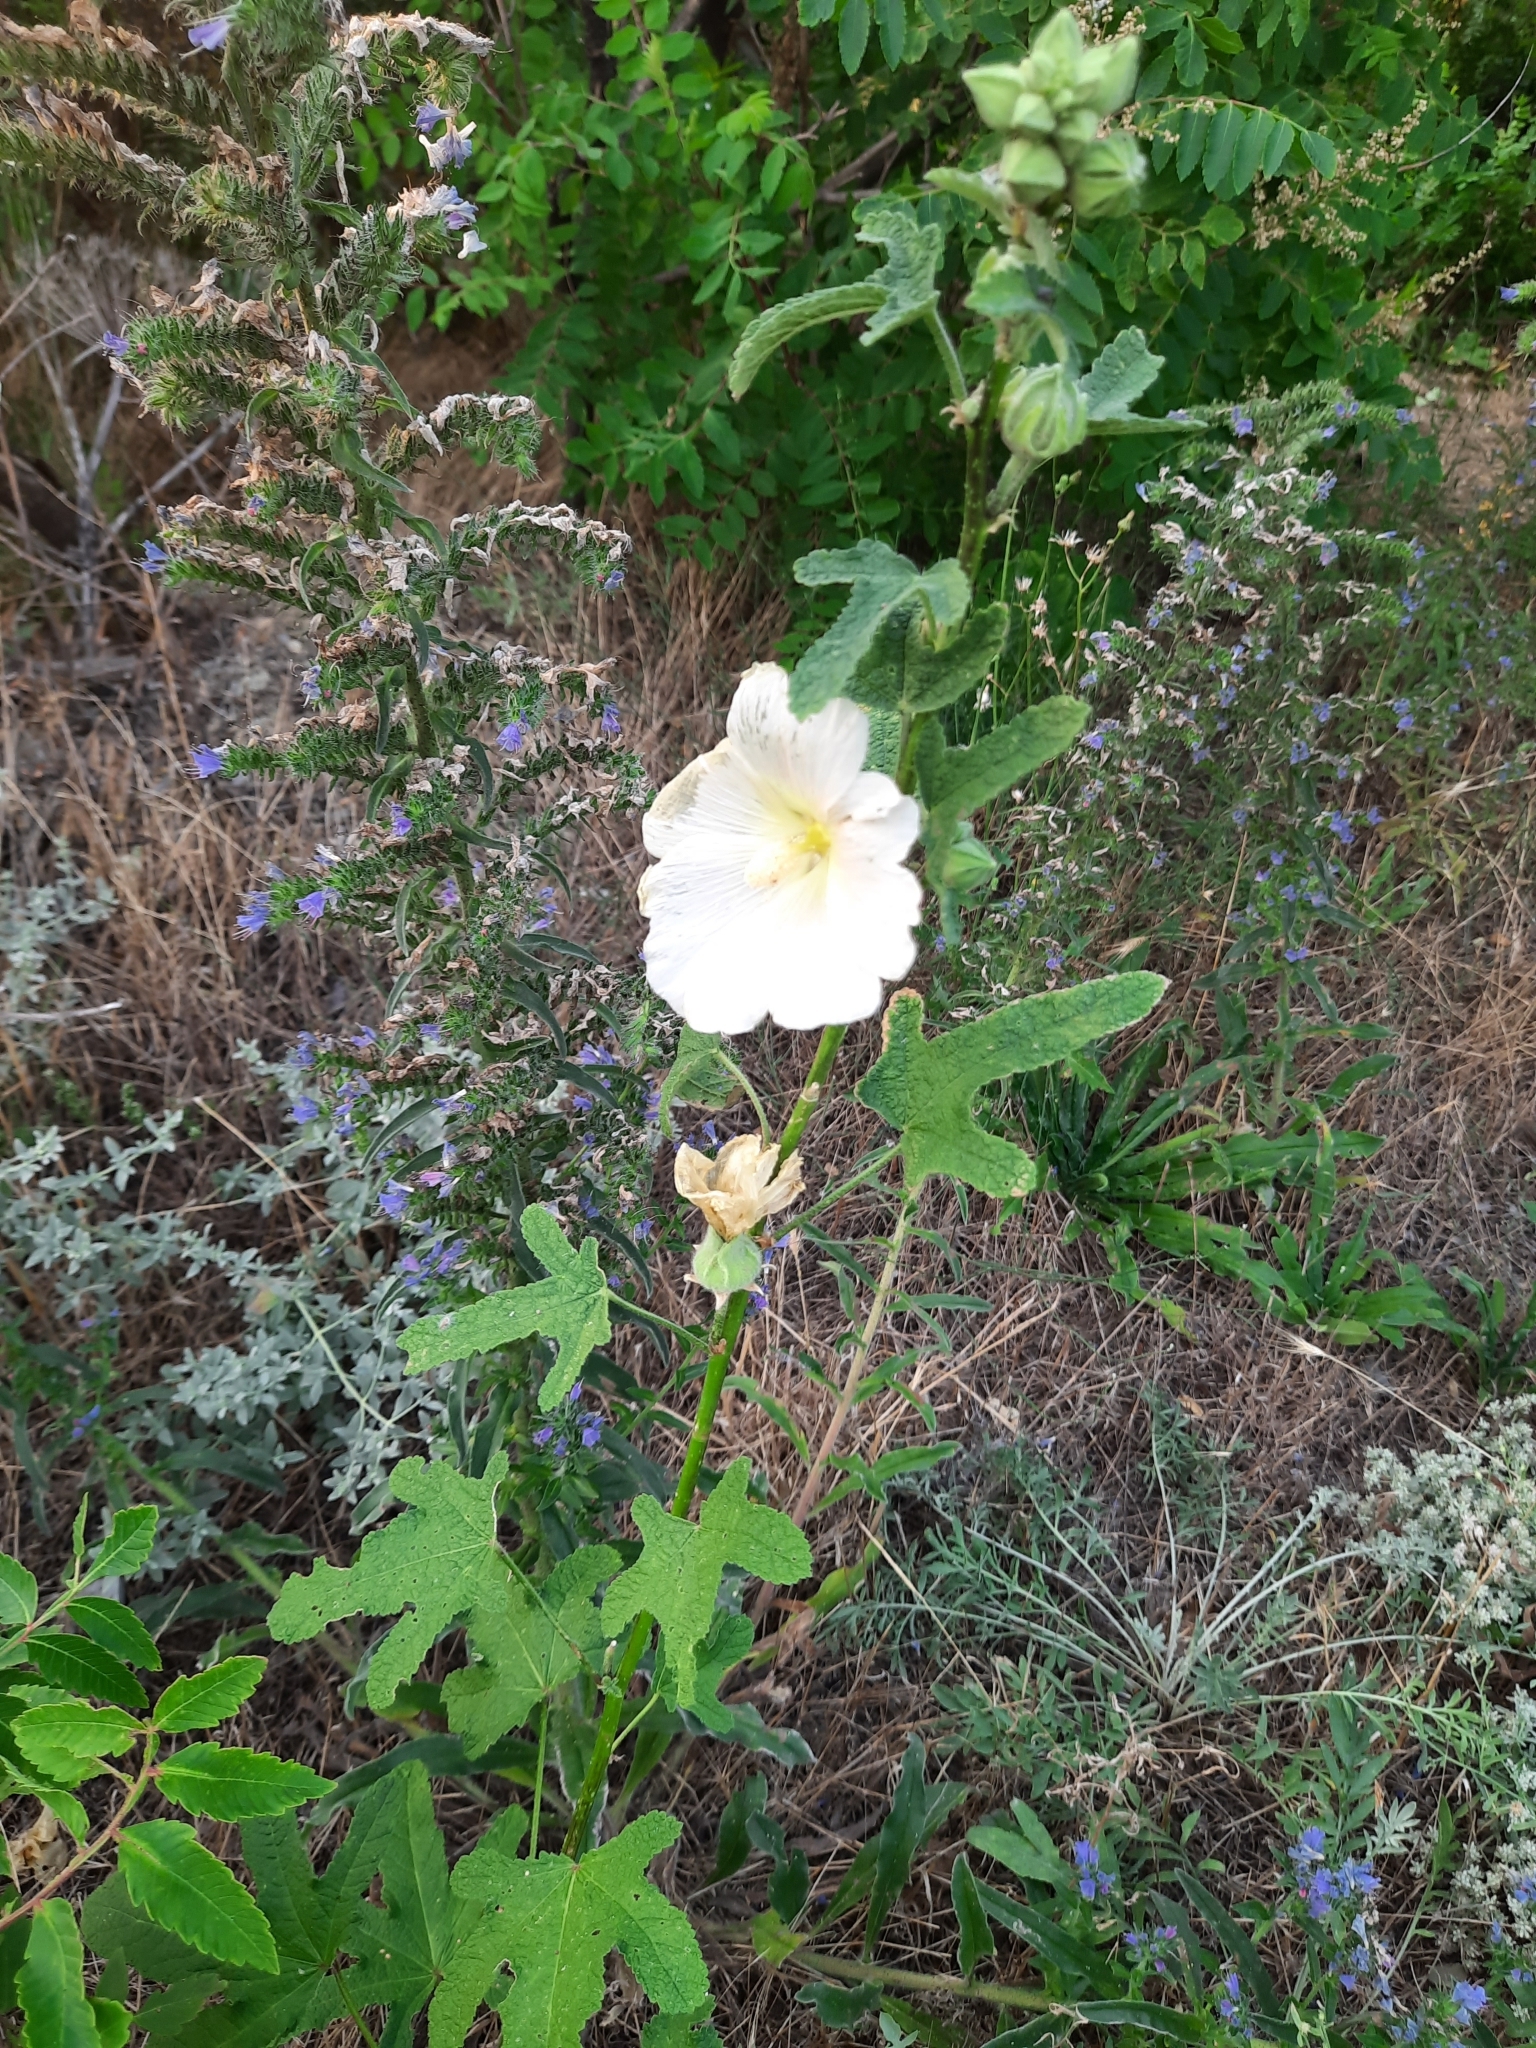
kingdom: Plantae
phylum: Tracheophyta
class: Magnoliopsida
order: Malvales
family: Malvaceae
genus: Alcea
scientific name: Alcea rugosa
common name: Russian hollyhock
